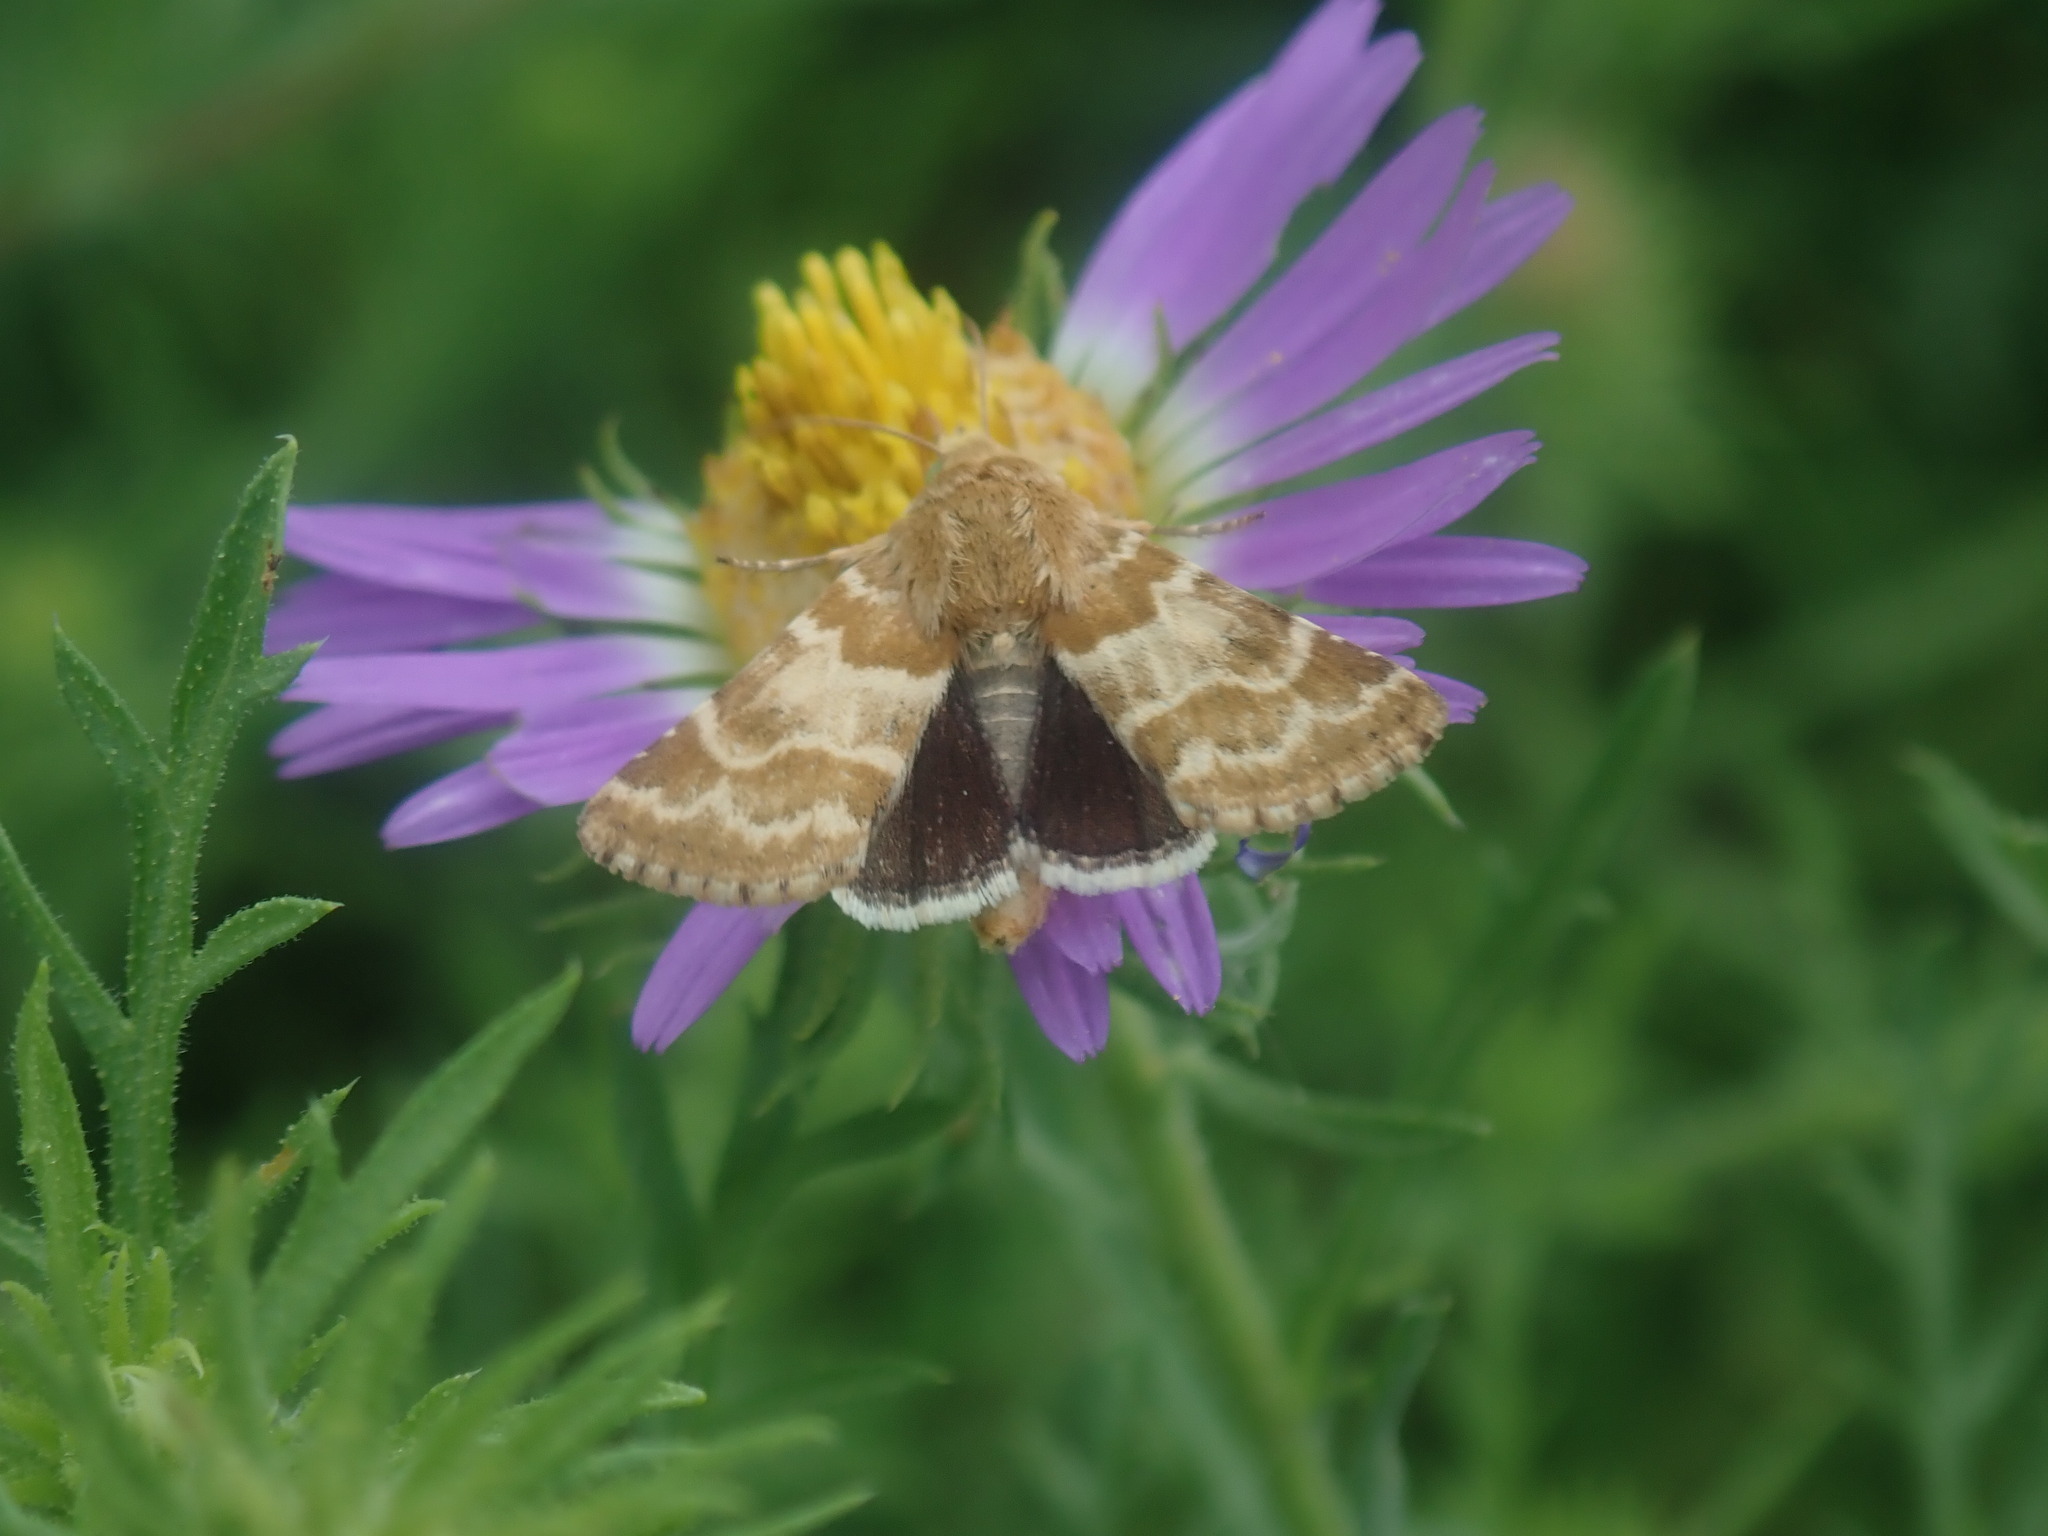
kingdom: Animalia
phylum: Arthropoda
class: Insecta
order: Lepidoptera
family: Noctuidae
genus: Schinia
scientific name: Schinia errans
